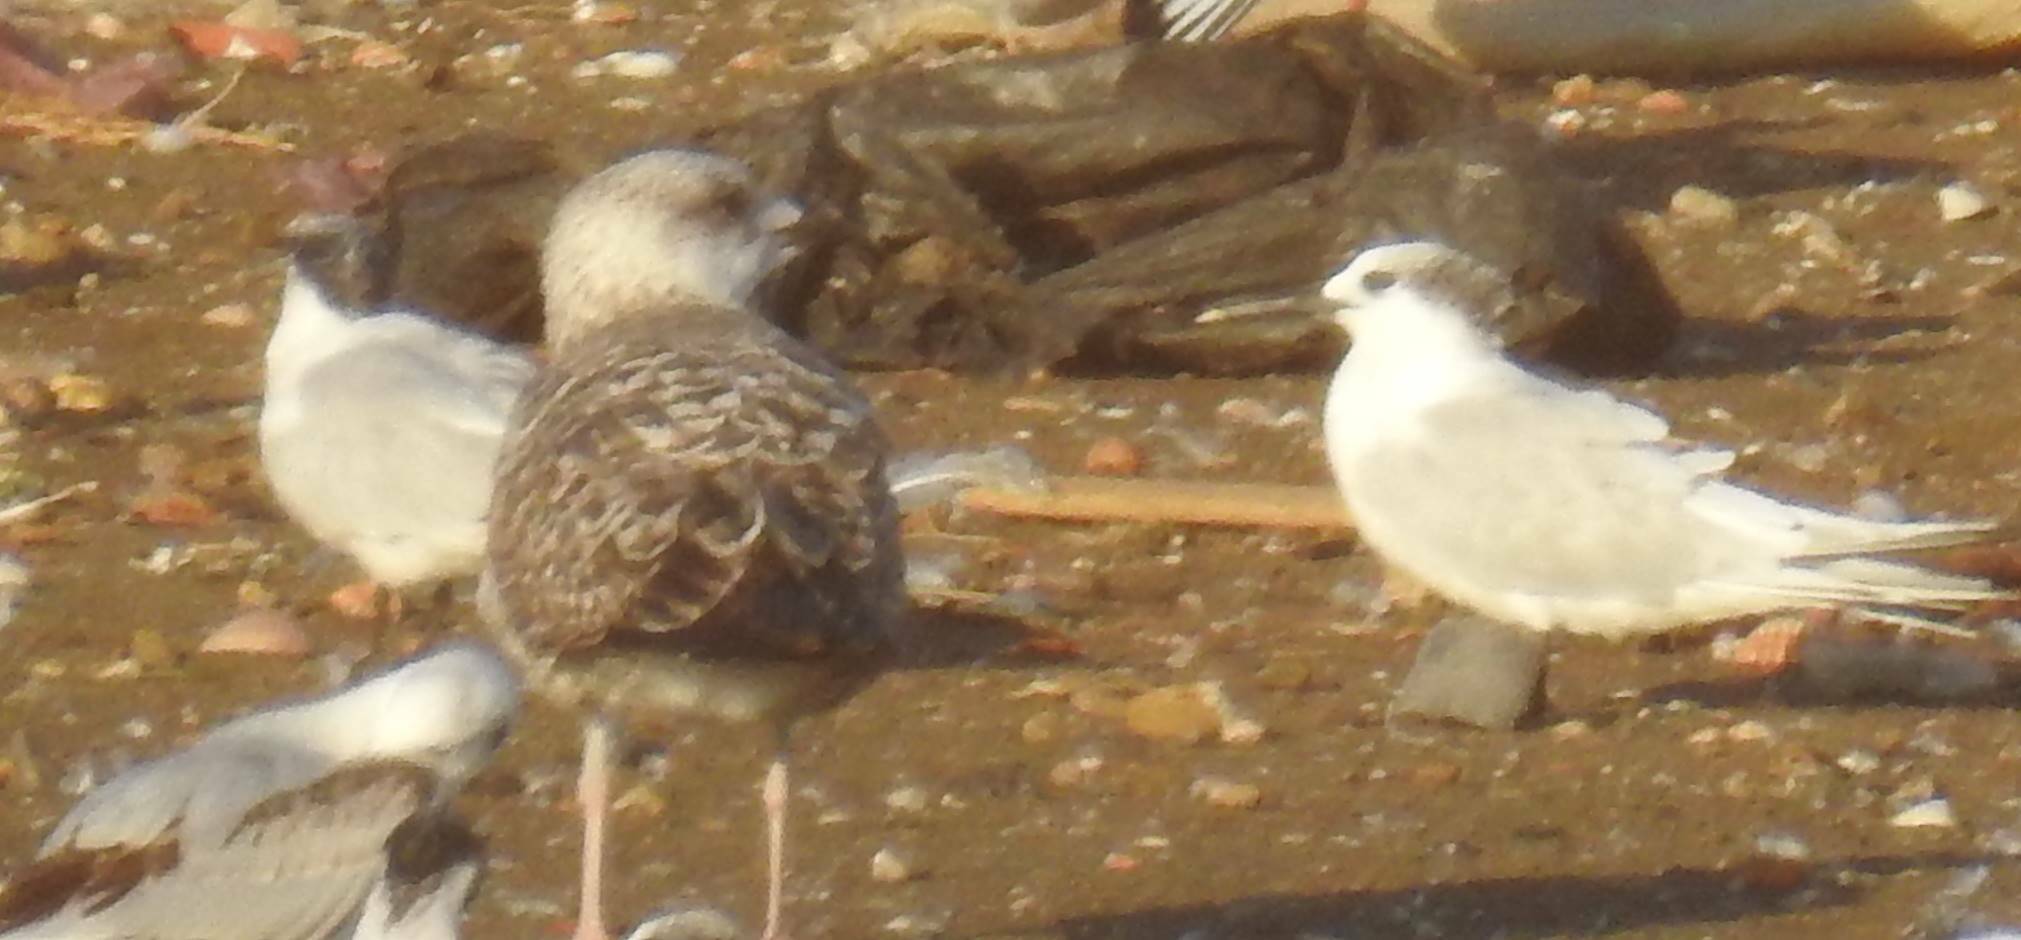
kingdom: Animalia
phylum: Chordata
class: Aves
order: Charadriiformes
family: Laridae
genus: Thalasseus
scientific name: Thalasseus sandvicensis
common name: Sandwich tern
